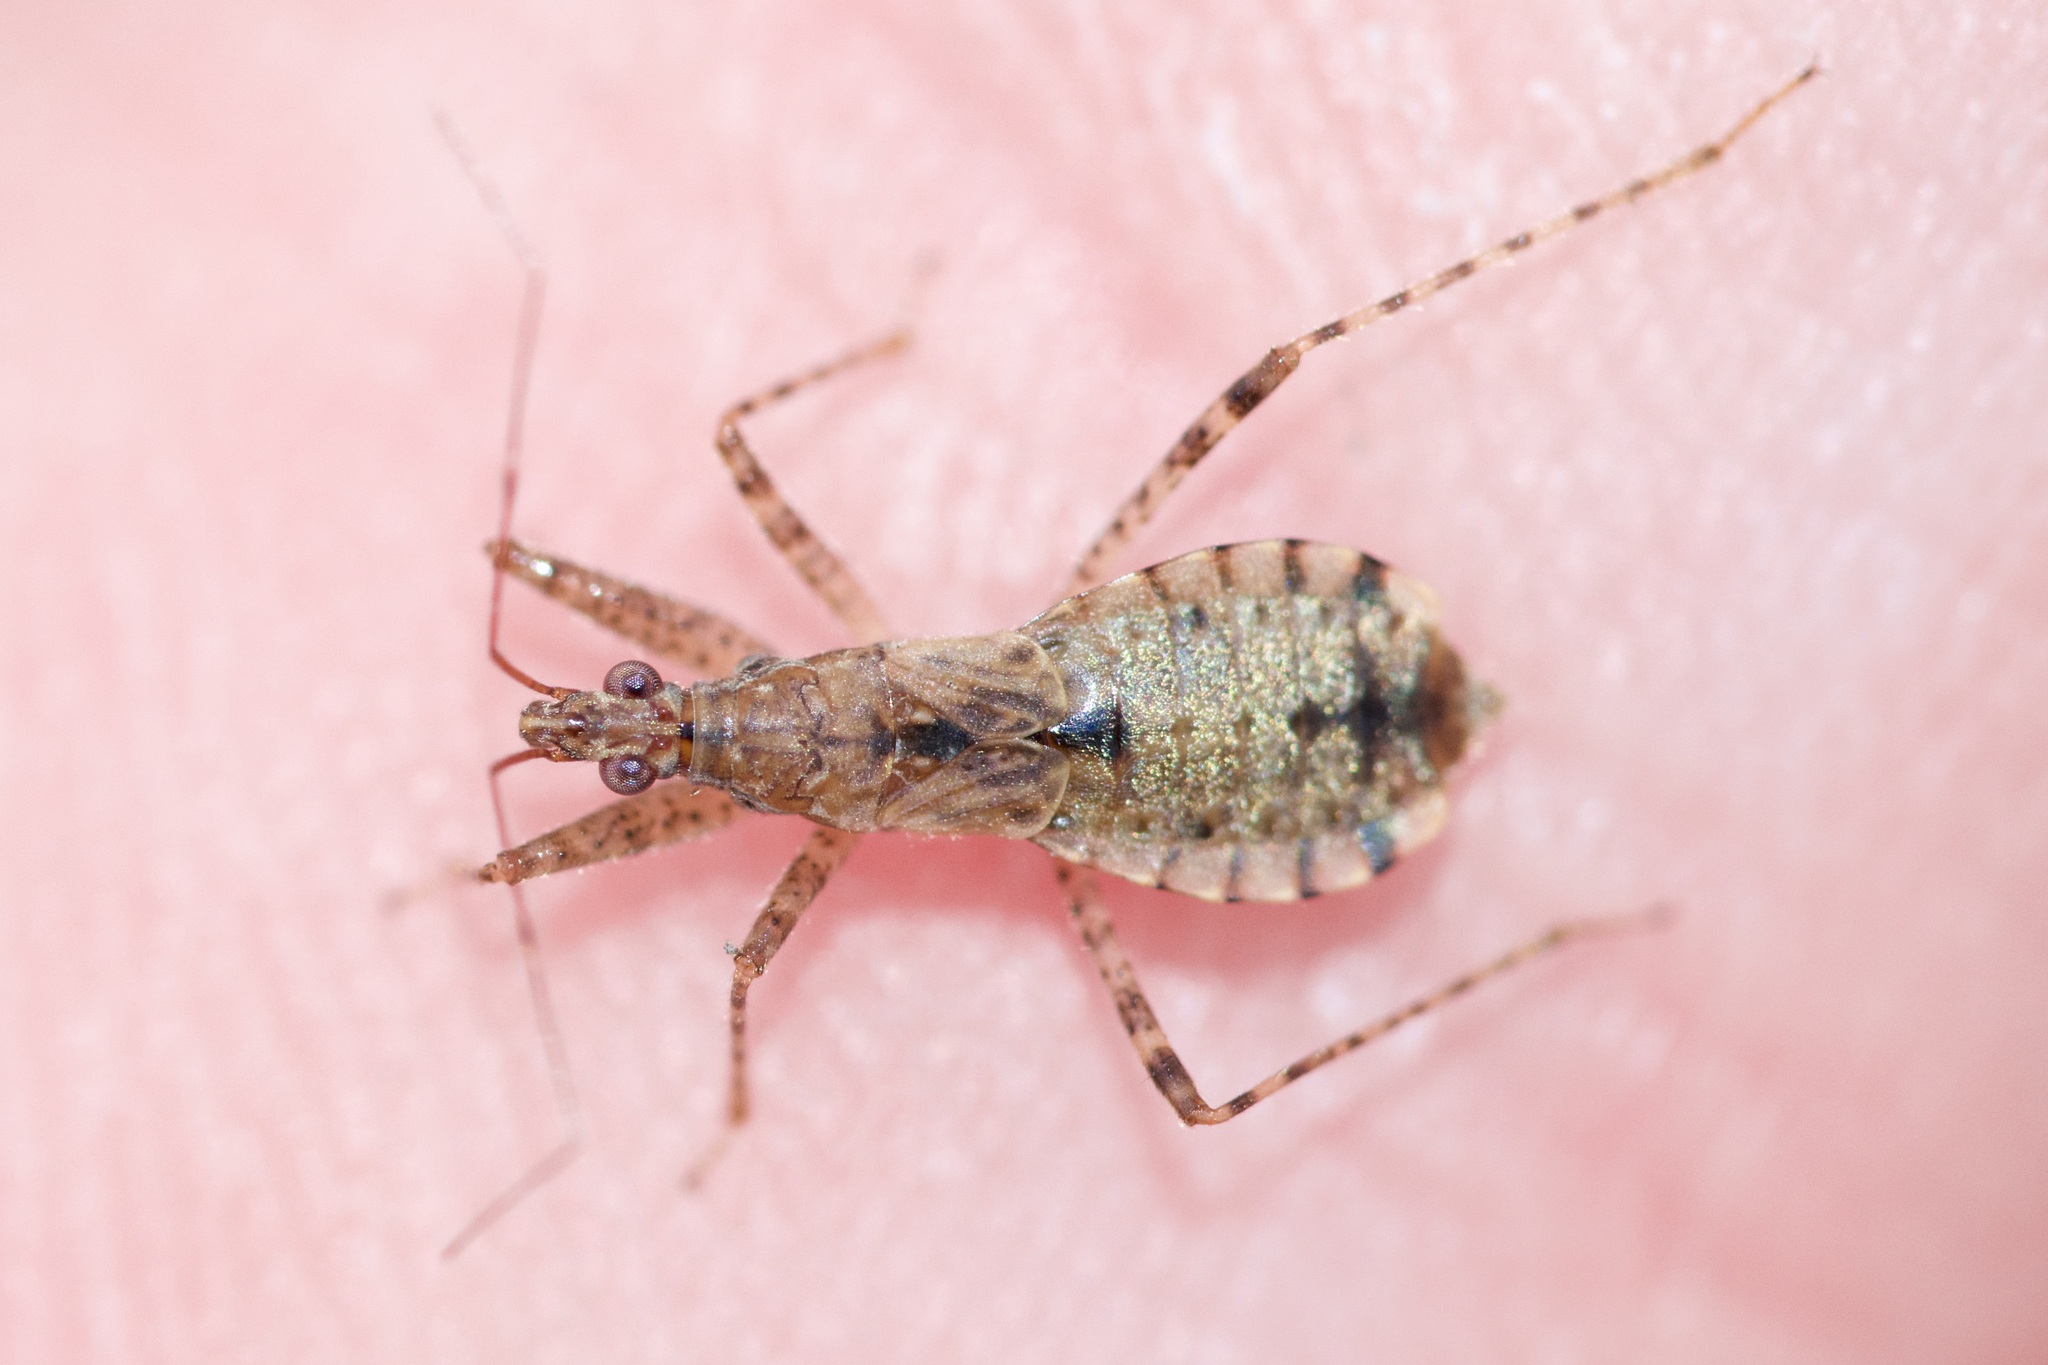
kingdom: Animalia
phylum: Arthropoda
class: Insecta
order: Hemiptera
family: Nabidae
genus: Hoplistoscelis
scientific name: Hoplistoscelis pallescens
